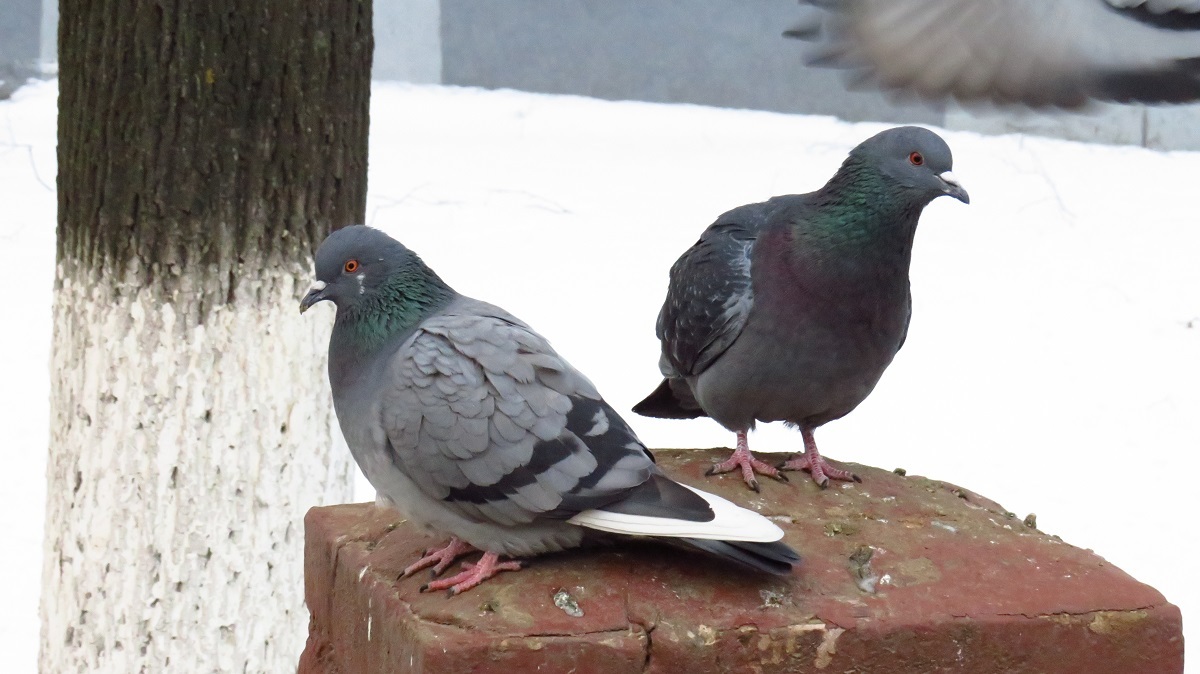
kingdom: Animalia
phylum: Chordata
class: Aves
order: Columbiformes
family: Columbidae
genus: Columba
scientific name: Columba livia
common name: Rock pigeon
